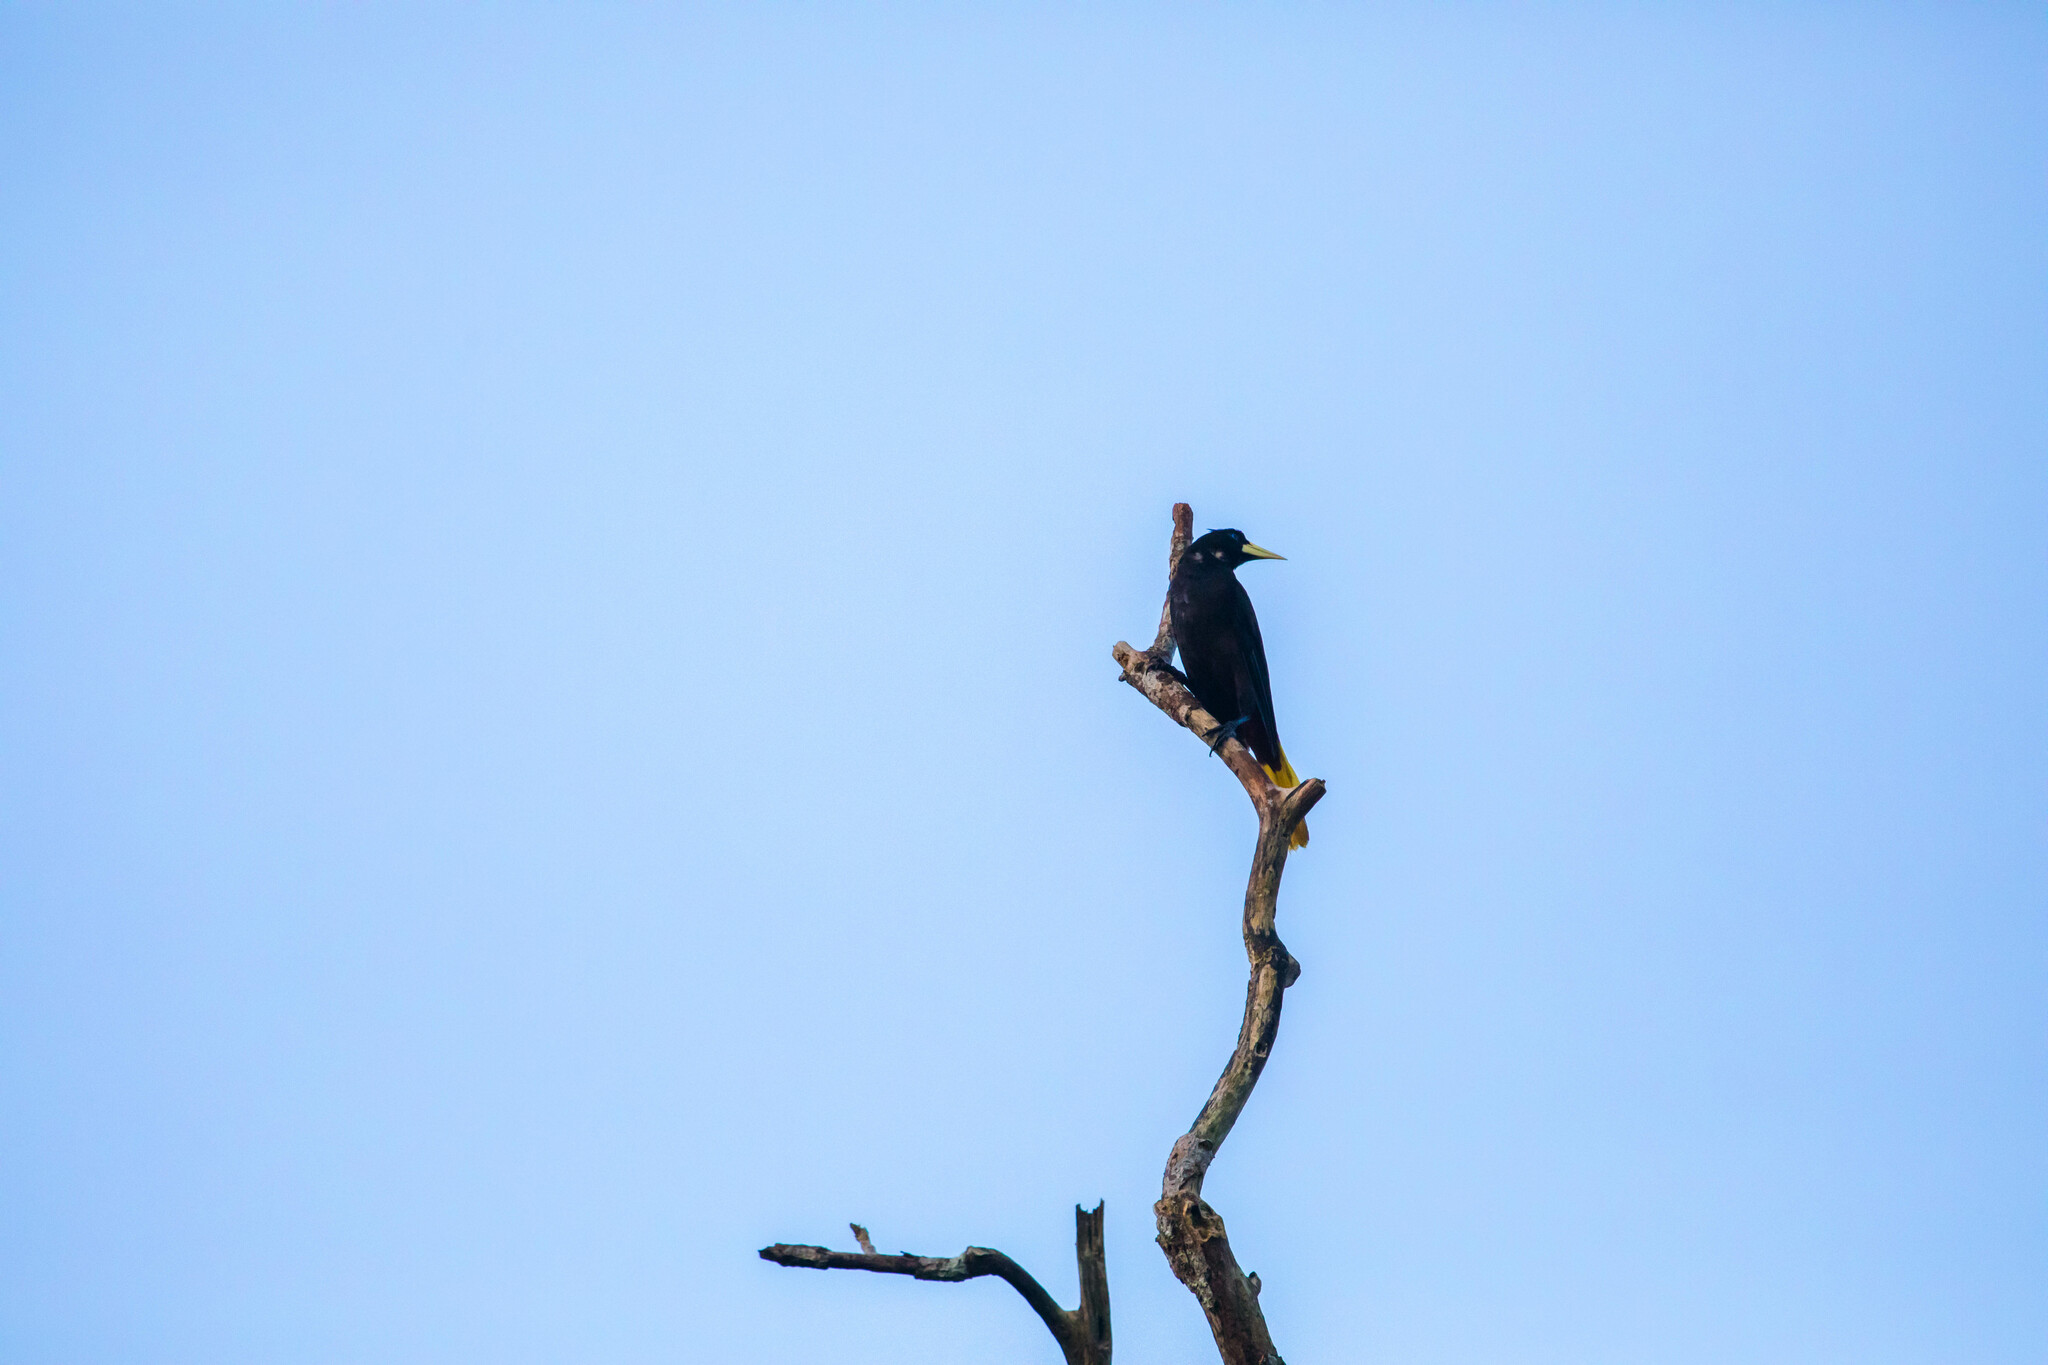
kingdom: Animalia
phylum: Chordata
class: Aves
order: Passeriformes
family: Icteridae
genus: Psarocolius
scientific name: Psarocolius decumanus
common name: Crested oropendola
